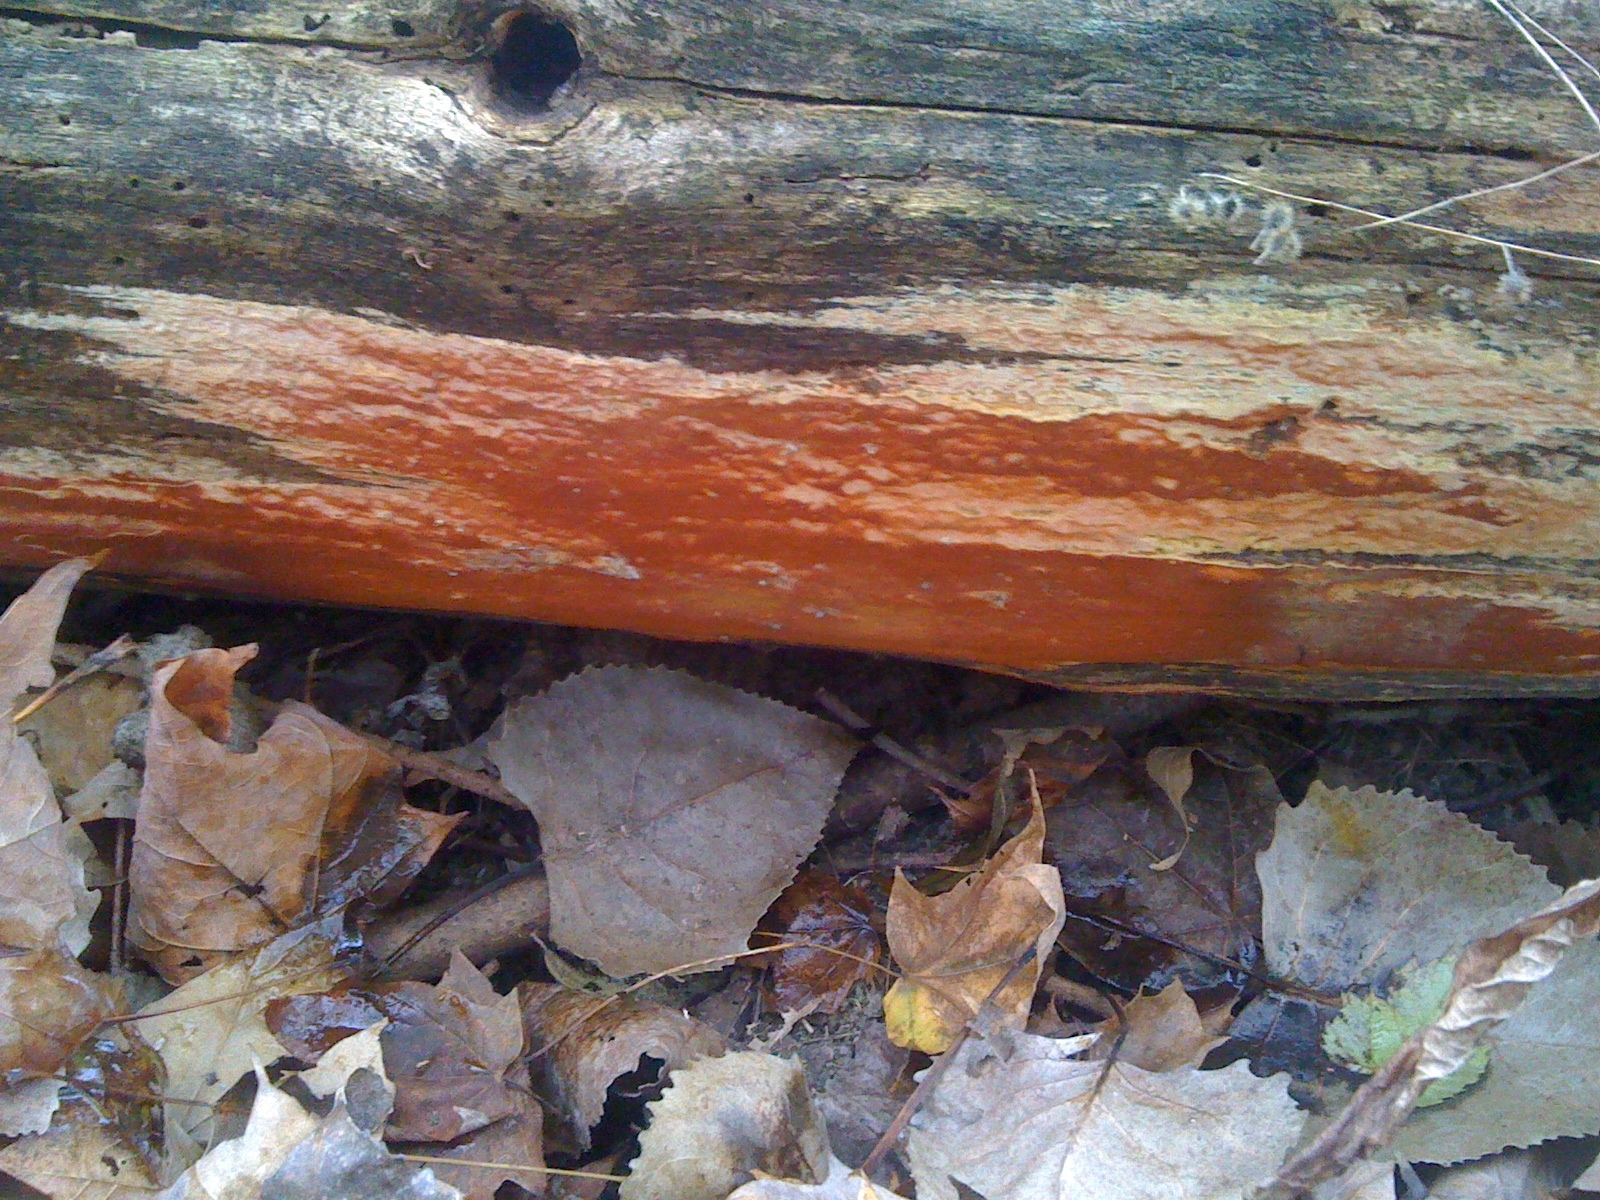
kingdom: Fungi
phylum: Basidiomycota
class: Agaricomycetes
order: Polyporales
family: Irpicaceae
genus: Ceriporia
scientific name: Ceriporia spissa
